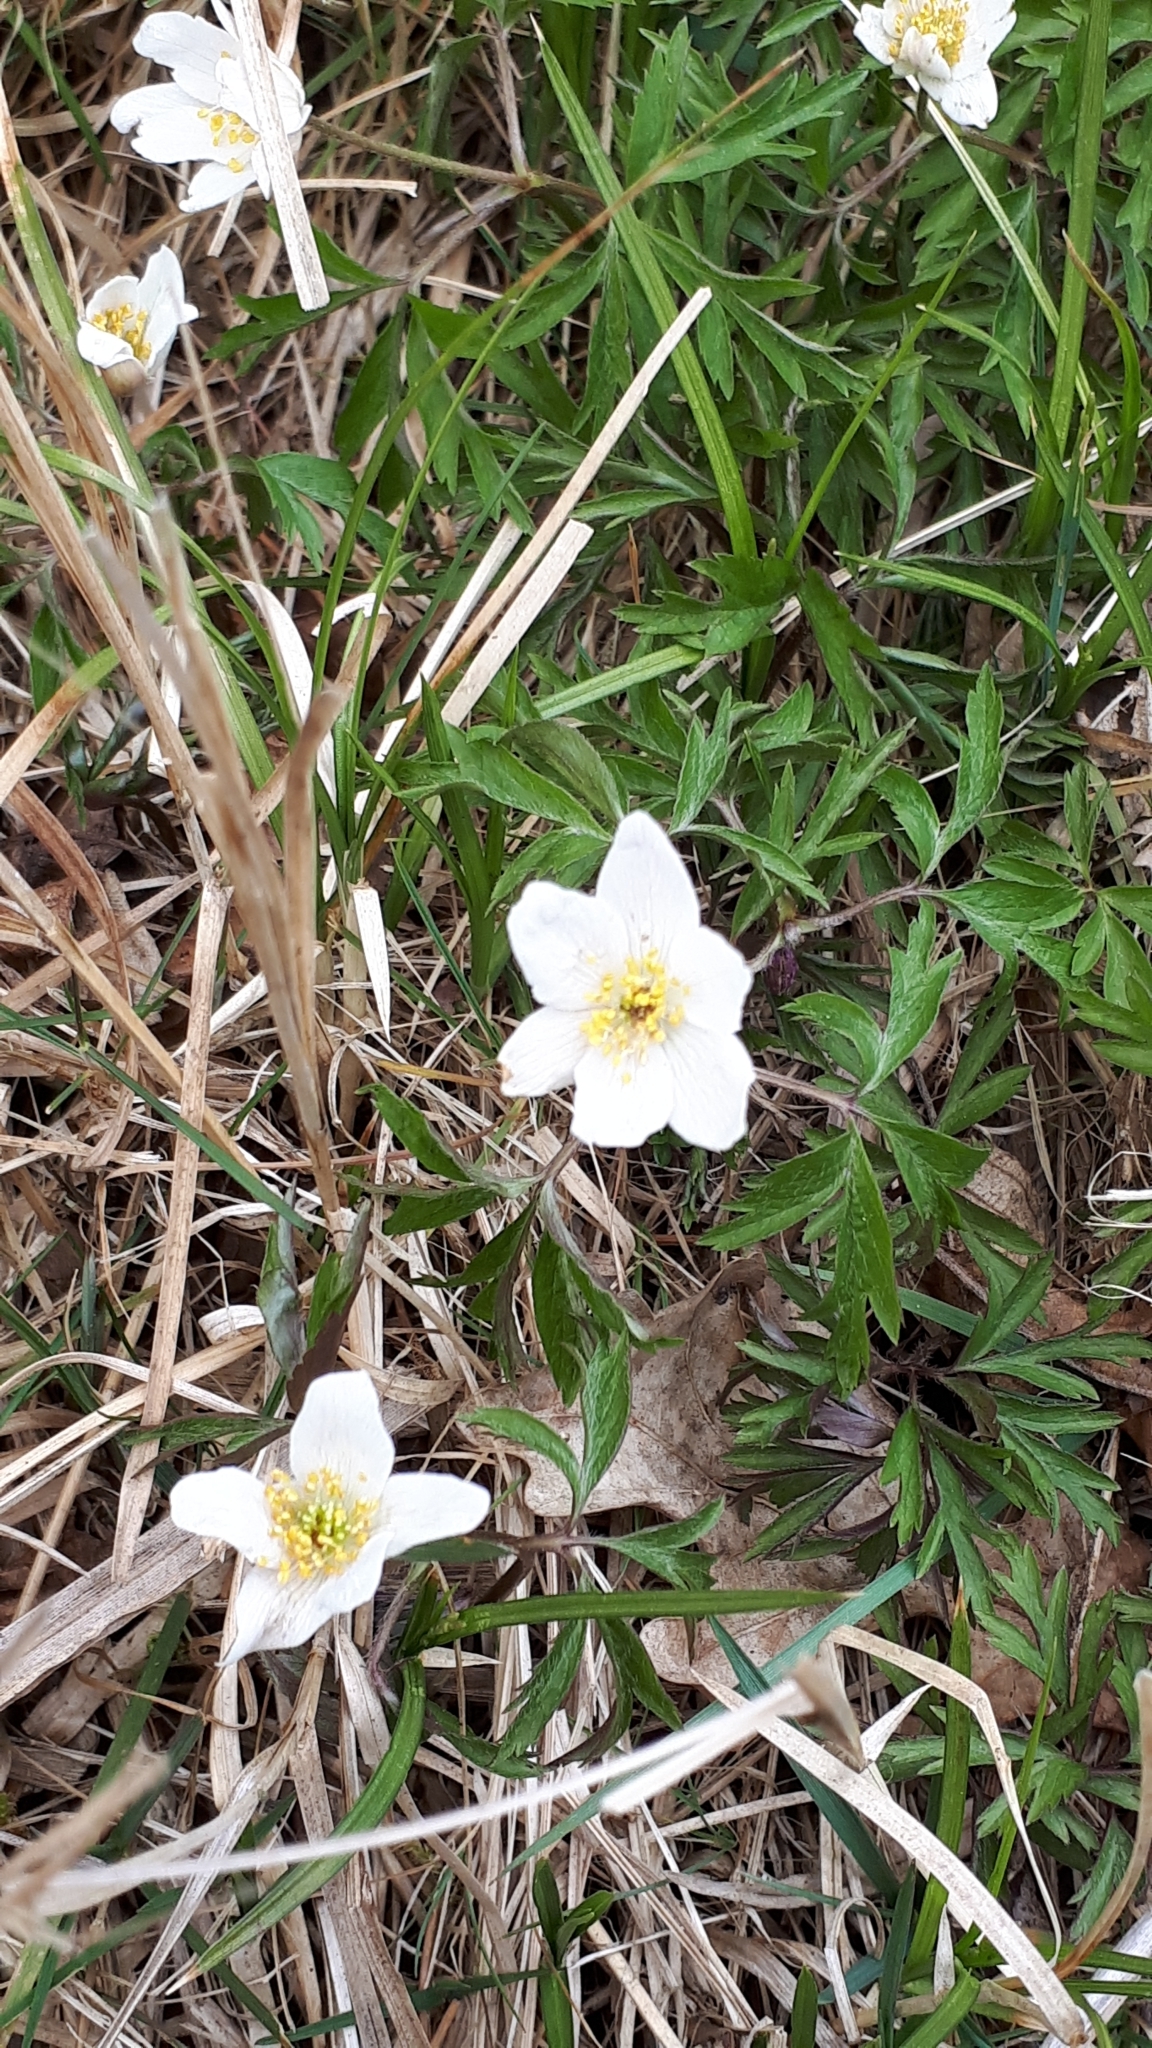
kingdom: Plantae
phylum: Tracheophyta
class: Magnoliopsida
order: Ranunculales
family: Ranunculaceae
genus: Anemone
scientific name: Anemone nemorosa
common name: Wood anemone
